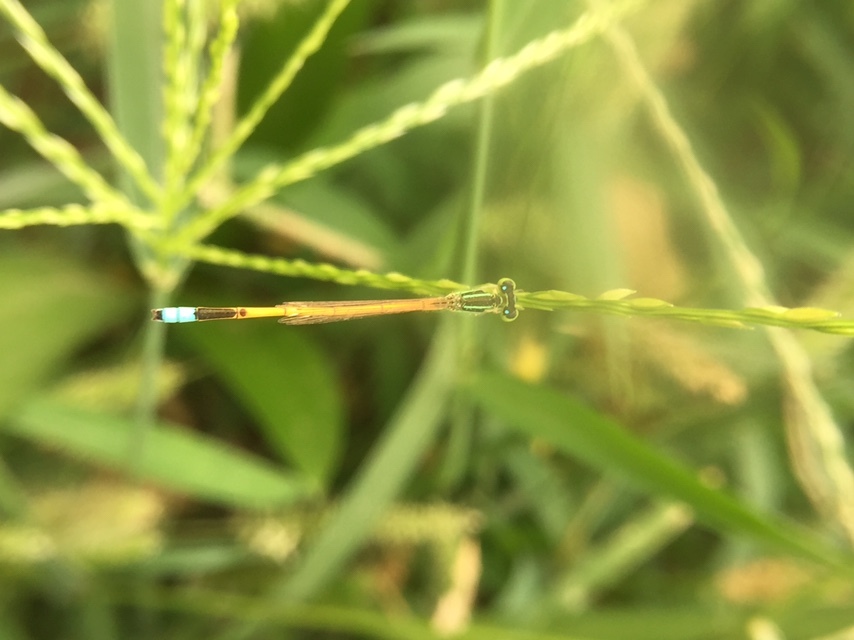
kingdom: Animalia
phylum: Arthropoda
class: Insecta
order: Odonata
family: Coenagrionidae
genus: Ischnura
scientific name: Ischnura rubilio
